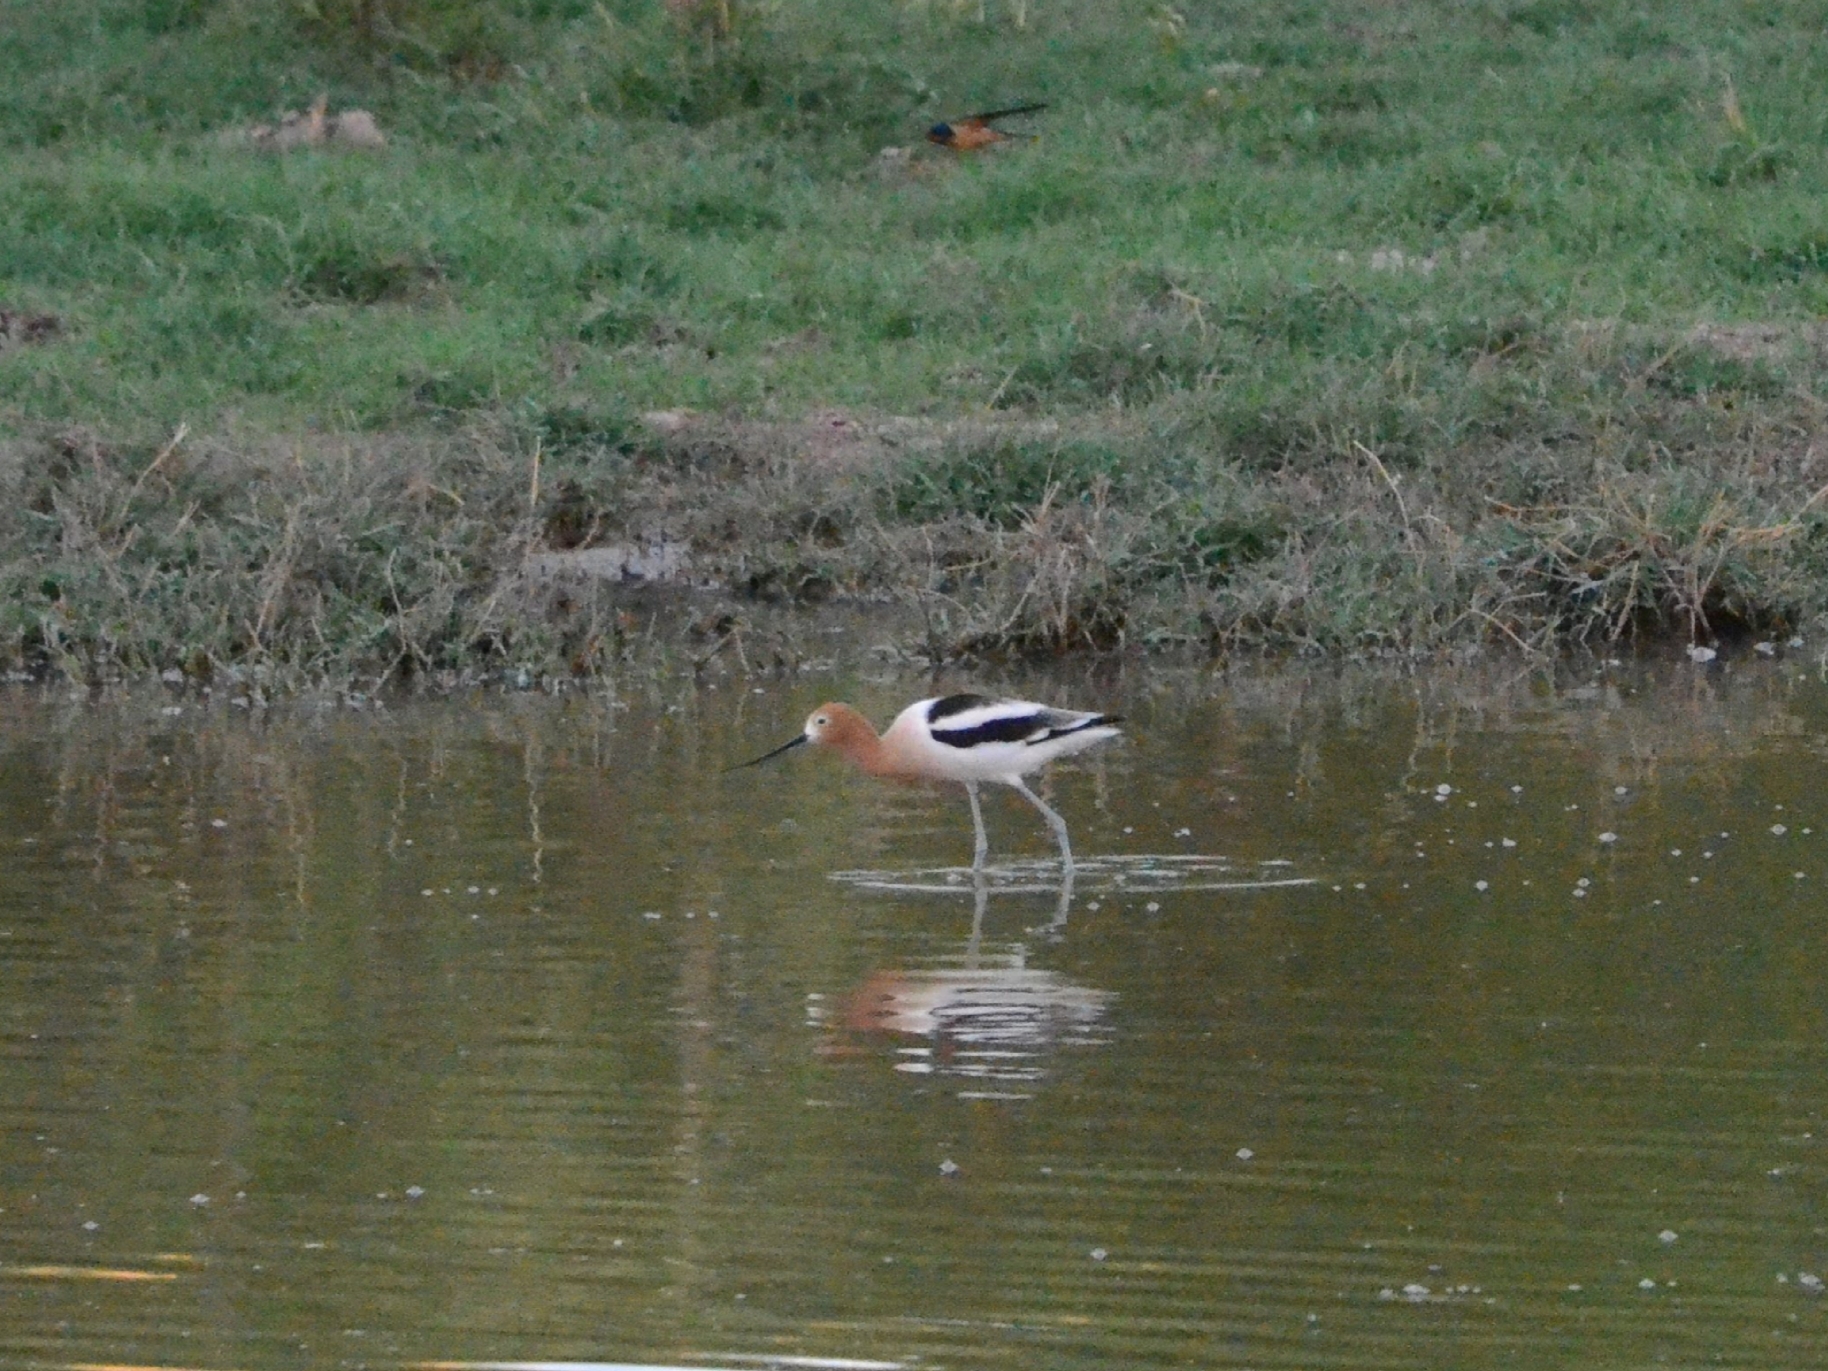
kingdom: Animalia
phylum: Chordata
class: Aves
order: Charadriiformes
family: Recurvirostridae
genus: Recurvirostra
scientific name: Recurvirostra americana
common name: American avocet
